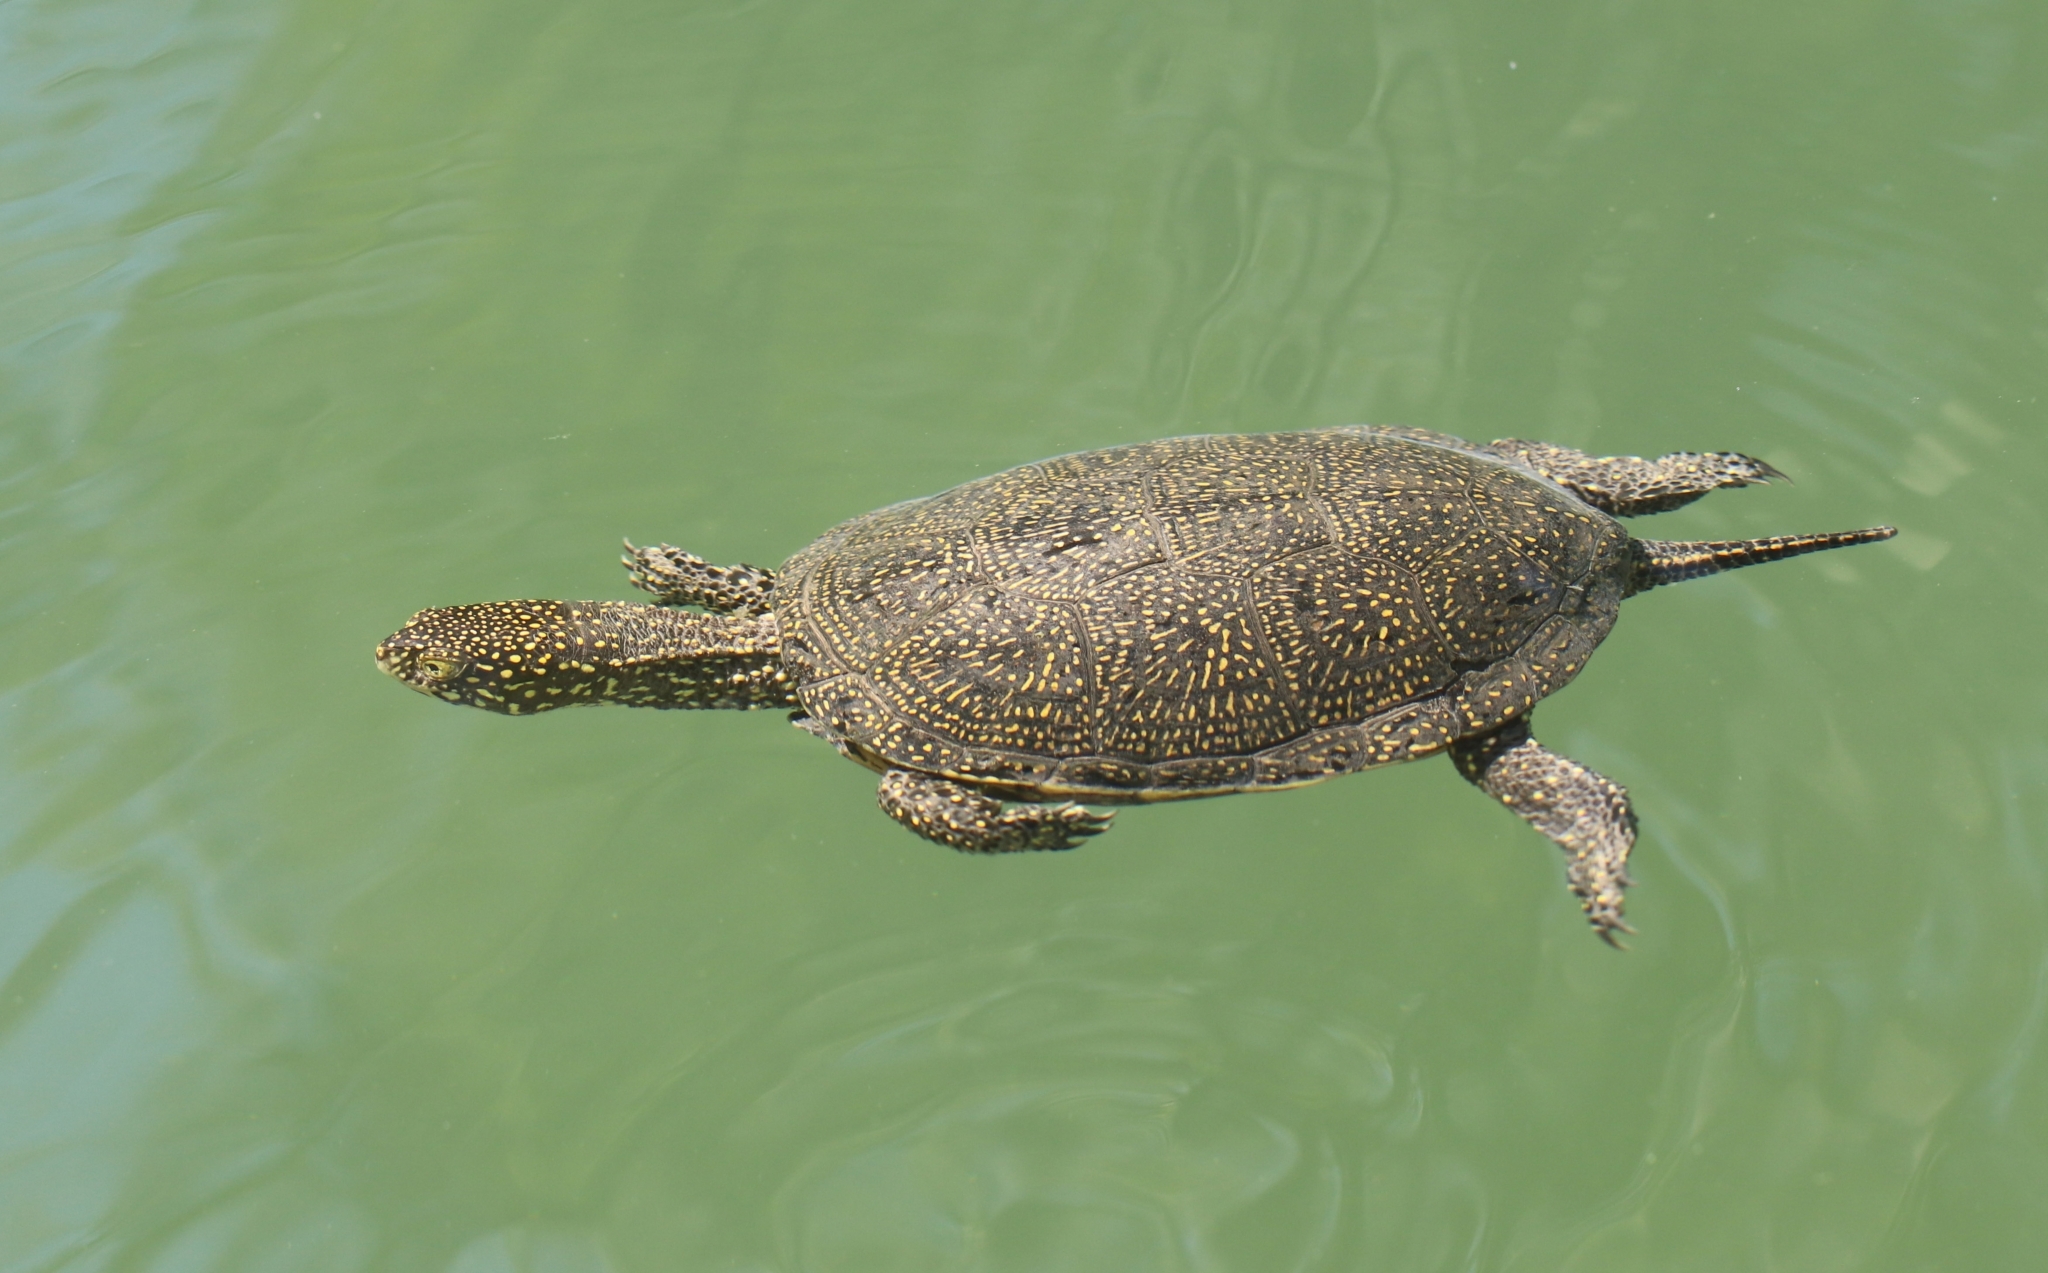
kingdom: Animalia
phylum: Chordata
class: Testudines
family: Emydidae
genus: Emys
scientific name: Emys orbicularis
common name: European pond turtle
